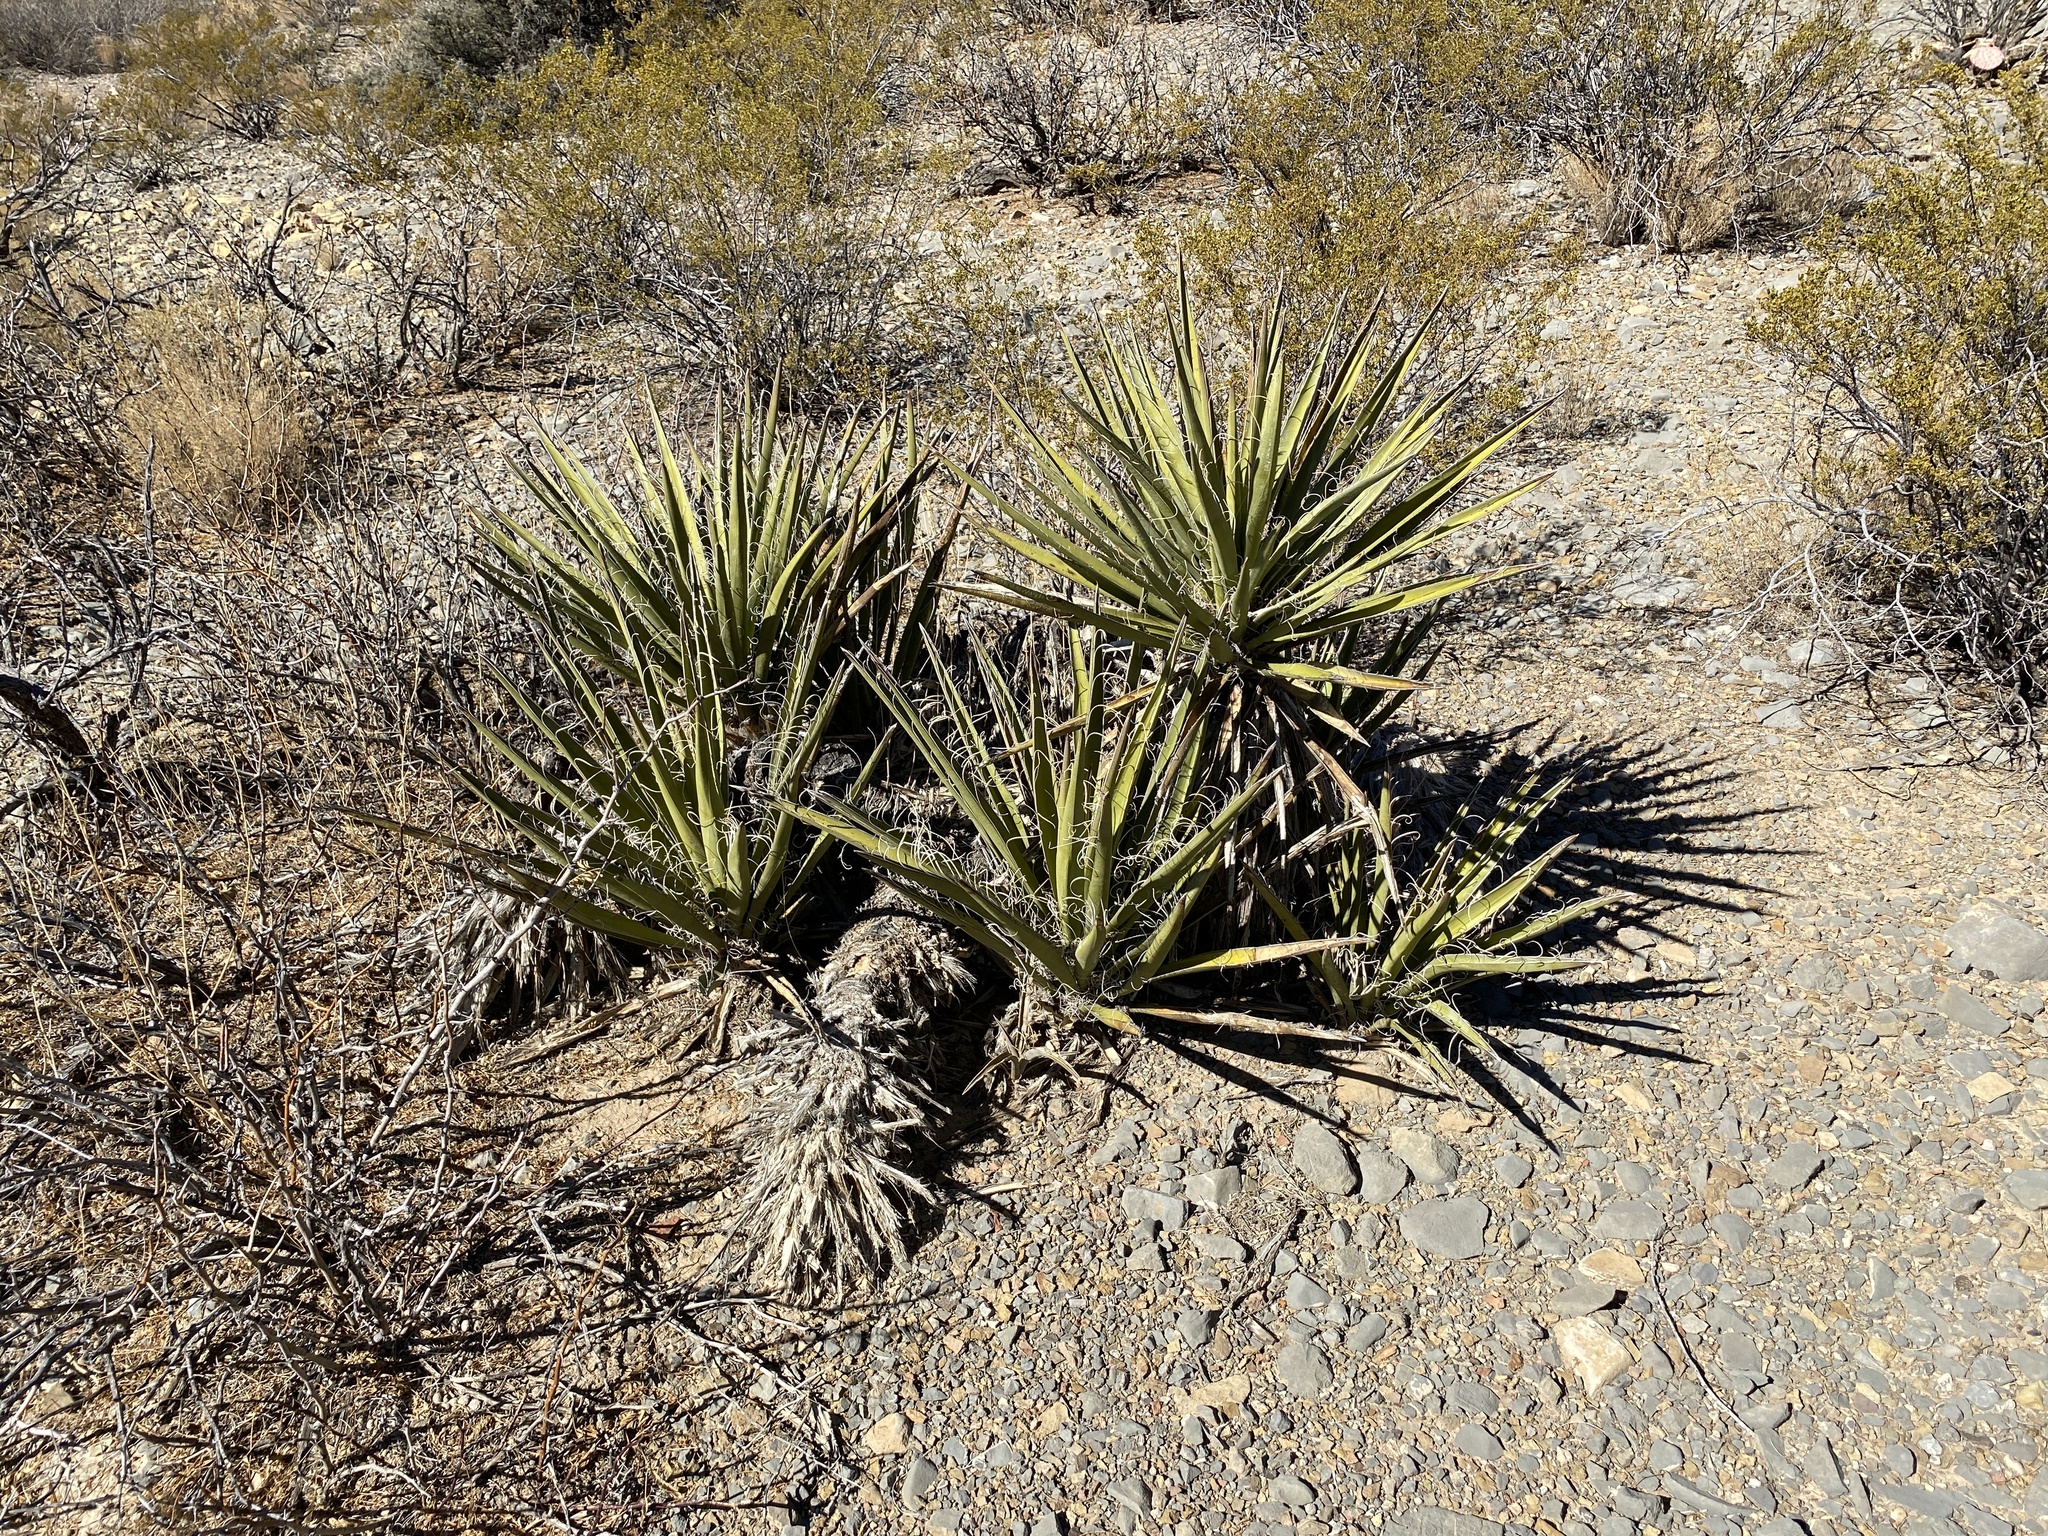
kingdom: Plantae
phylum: Tracheophyta
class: Liliopsida
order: Asparagales
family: Asparagaceae
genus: Yucca
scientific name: Yucca baccata
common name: Banana yucca
